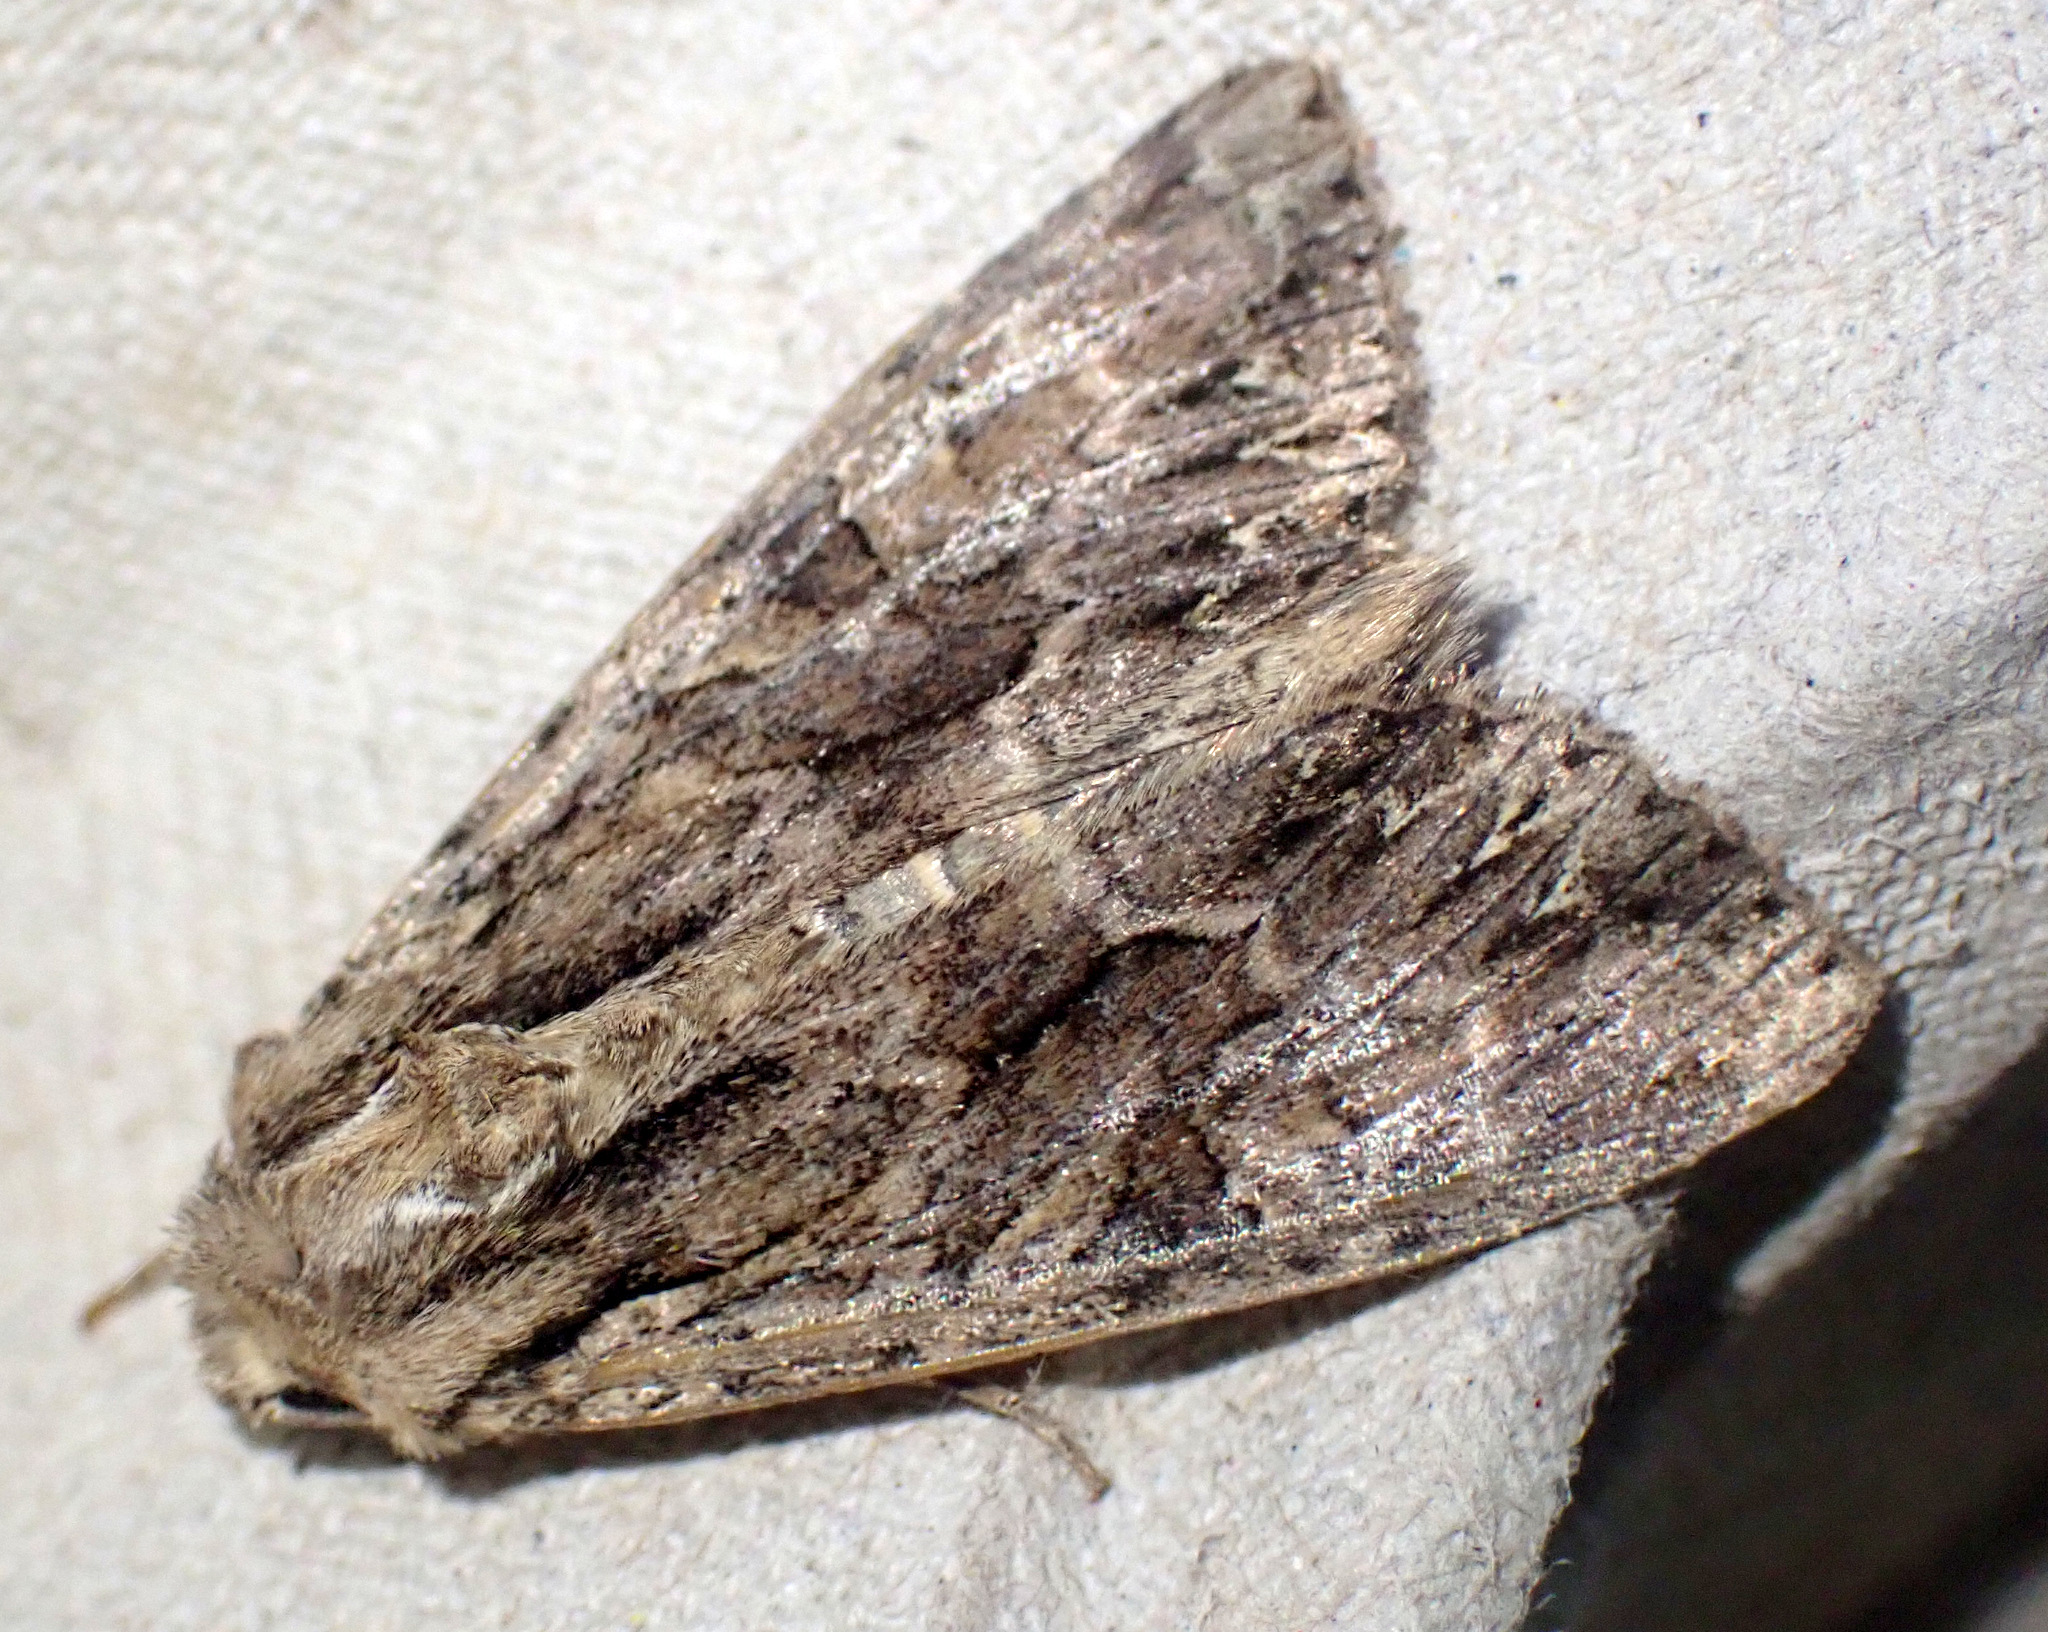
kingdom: Animalia
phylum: Arthropoda
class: Insecta
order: Lepidoptera
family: Noctuidae
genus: Apamea
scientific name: Apamea monoglypha
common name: Dark arches
